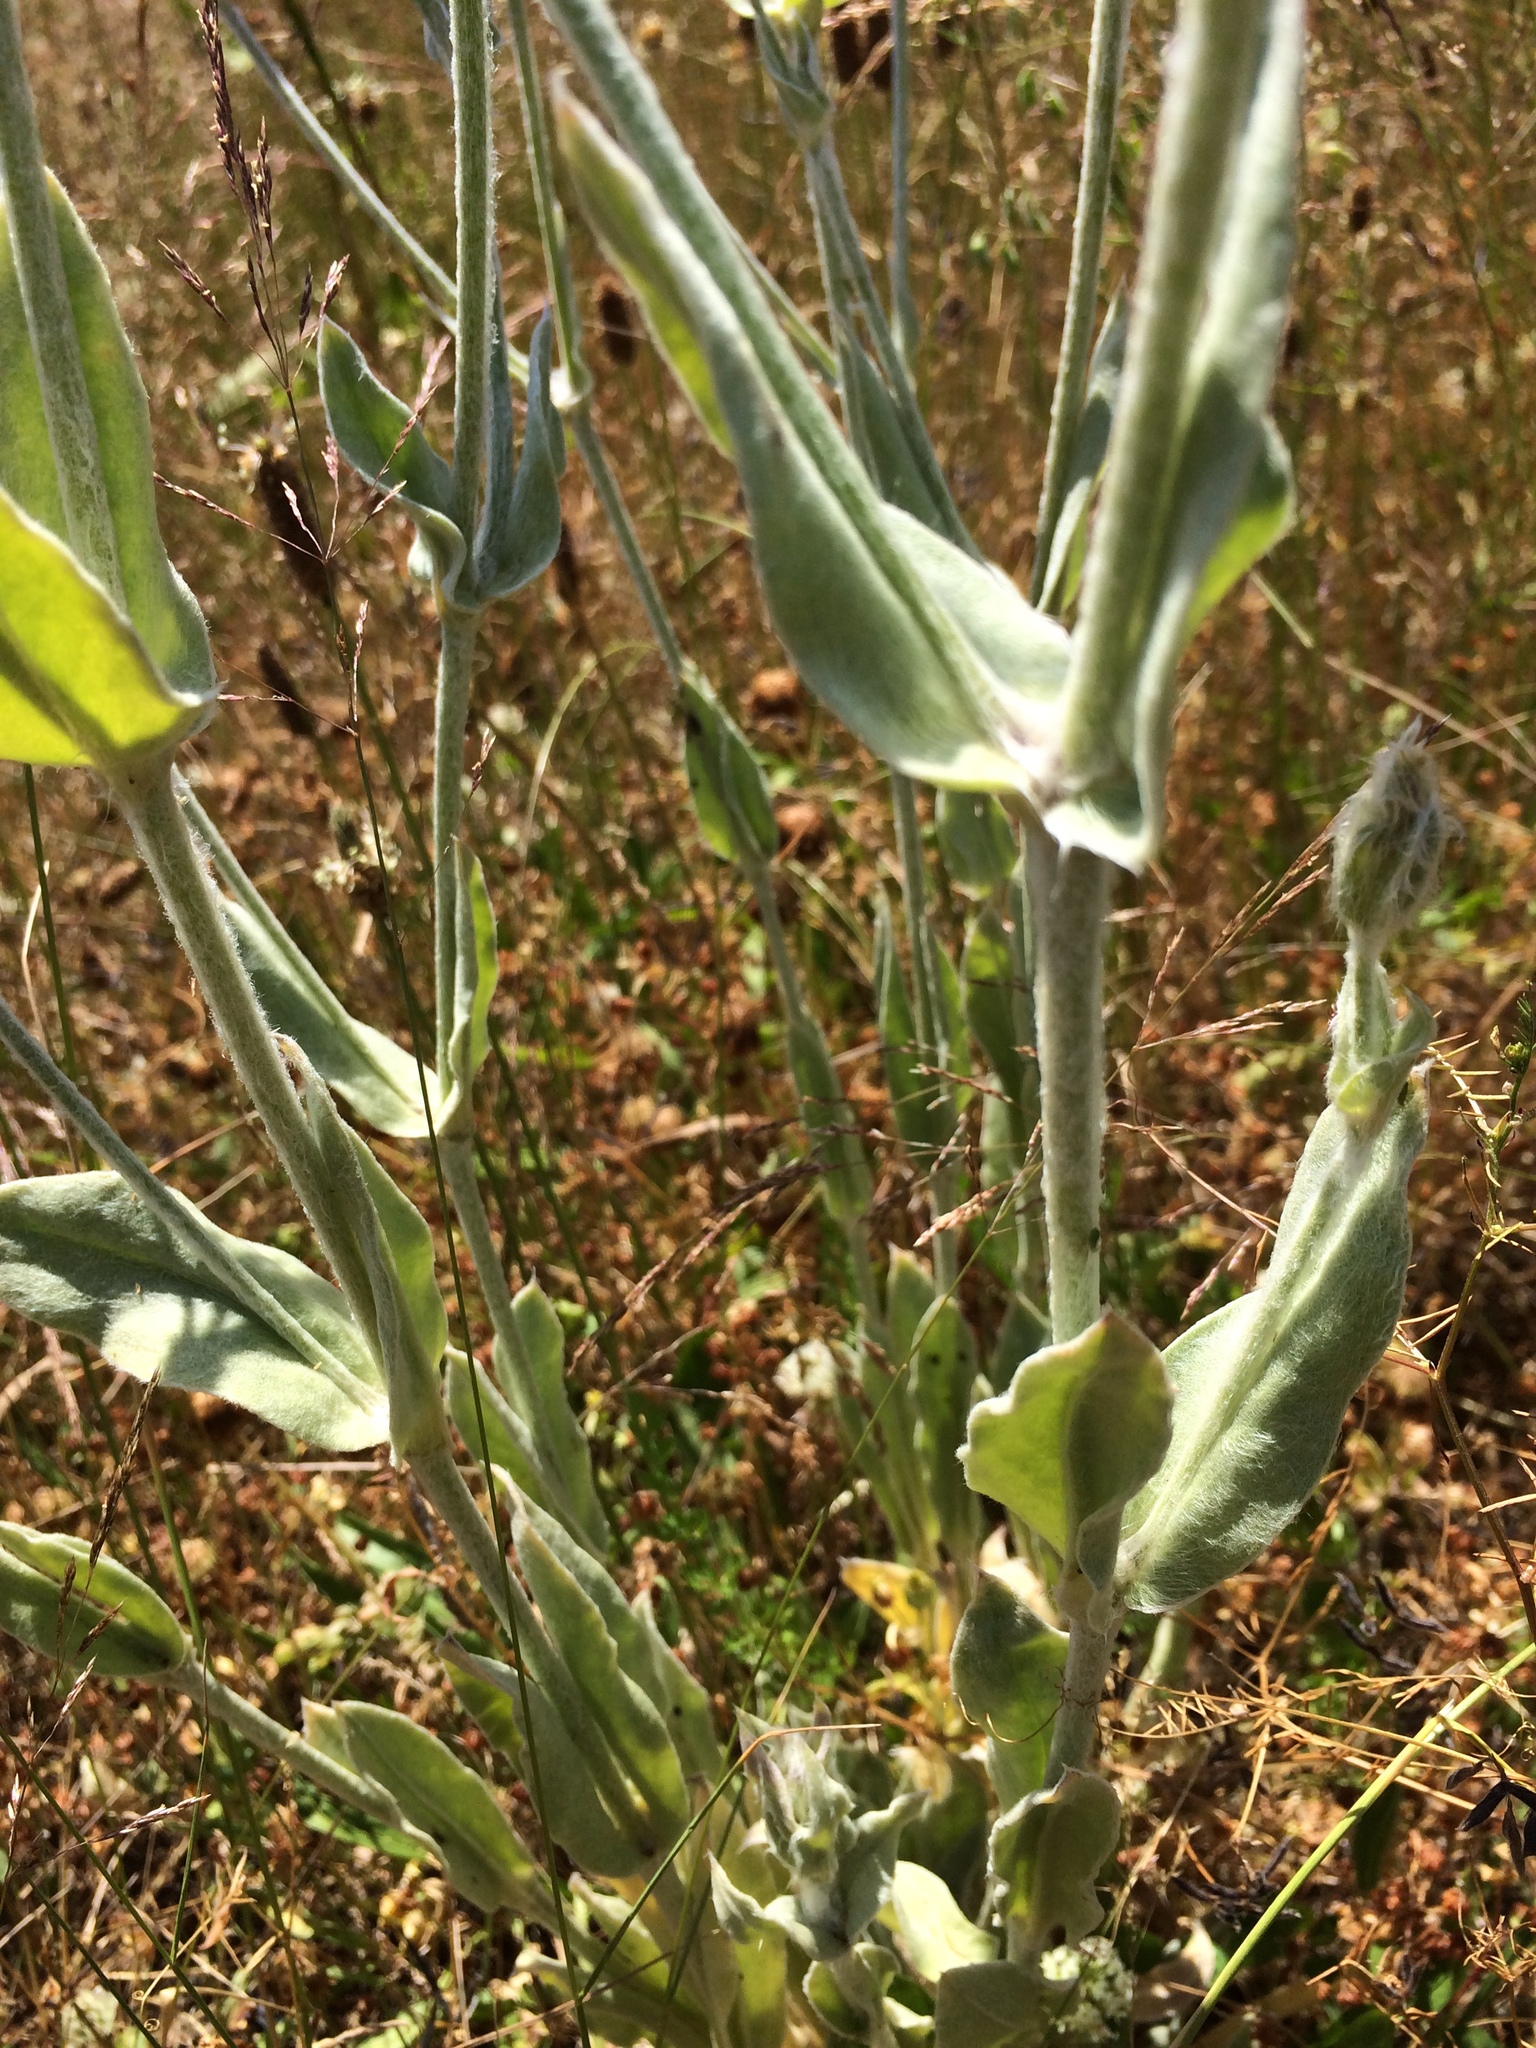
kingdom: Plantae
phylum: Tracheophyta
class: Magnoliopsida
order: Caryophyllales
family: Caryophyllaceae
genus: Silene
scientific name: Silene coronaria
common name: Rose campion
